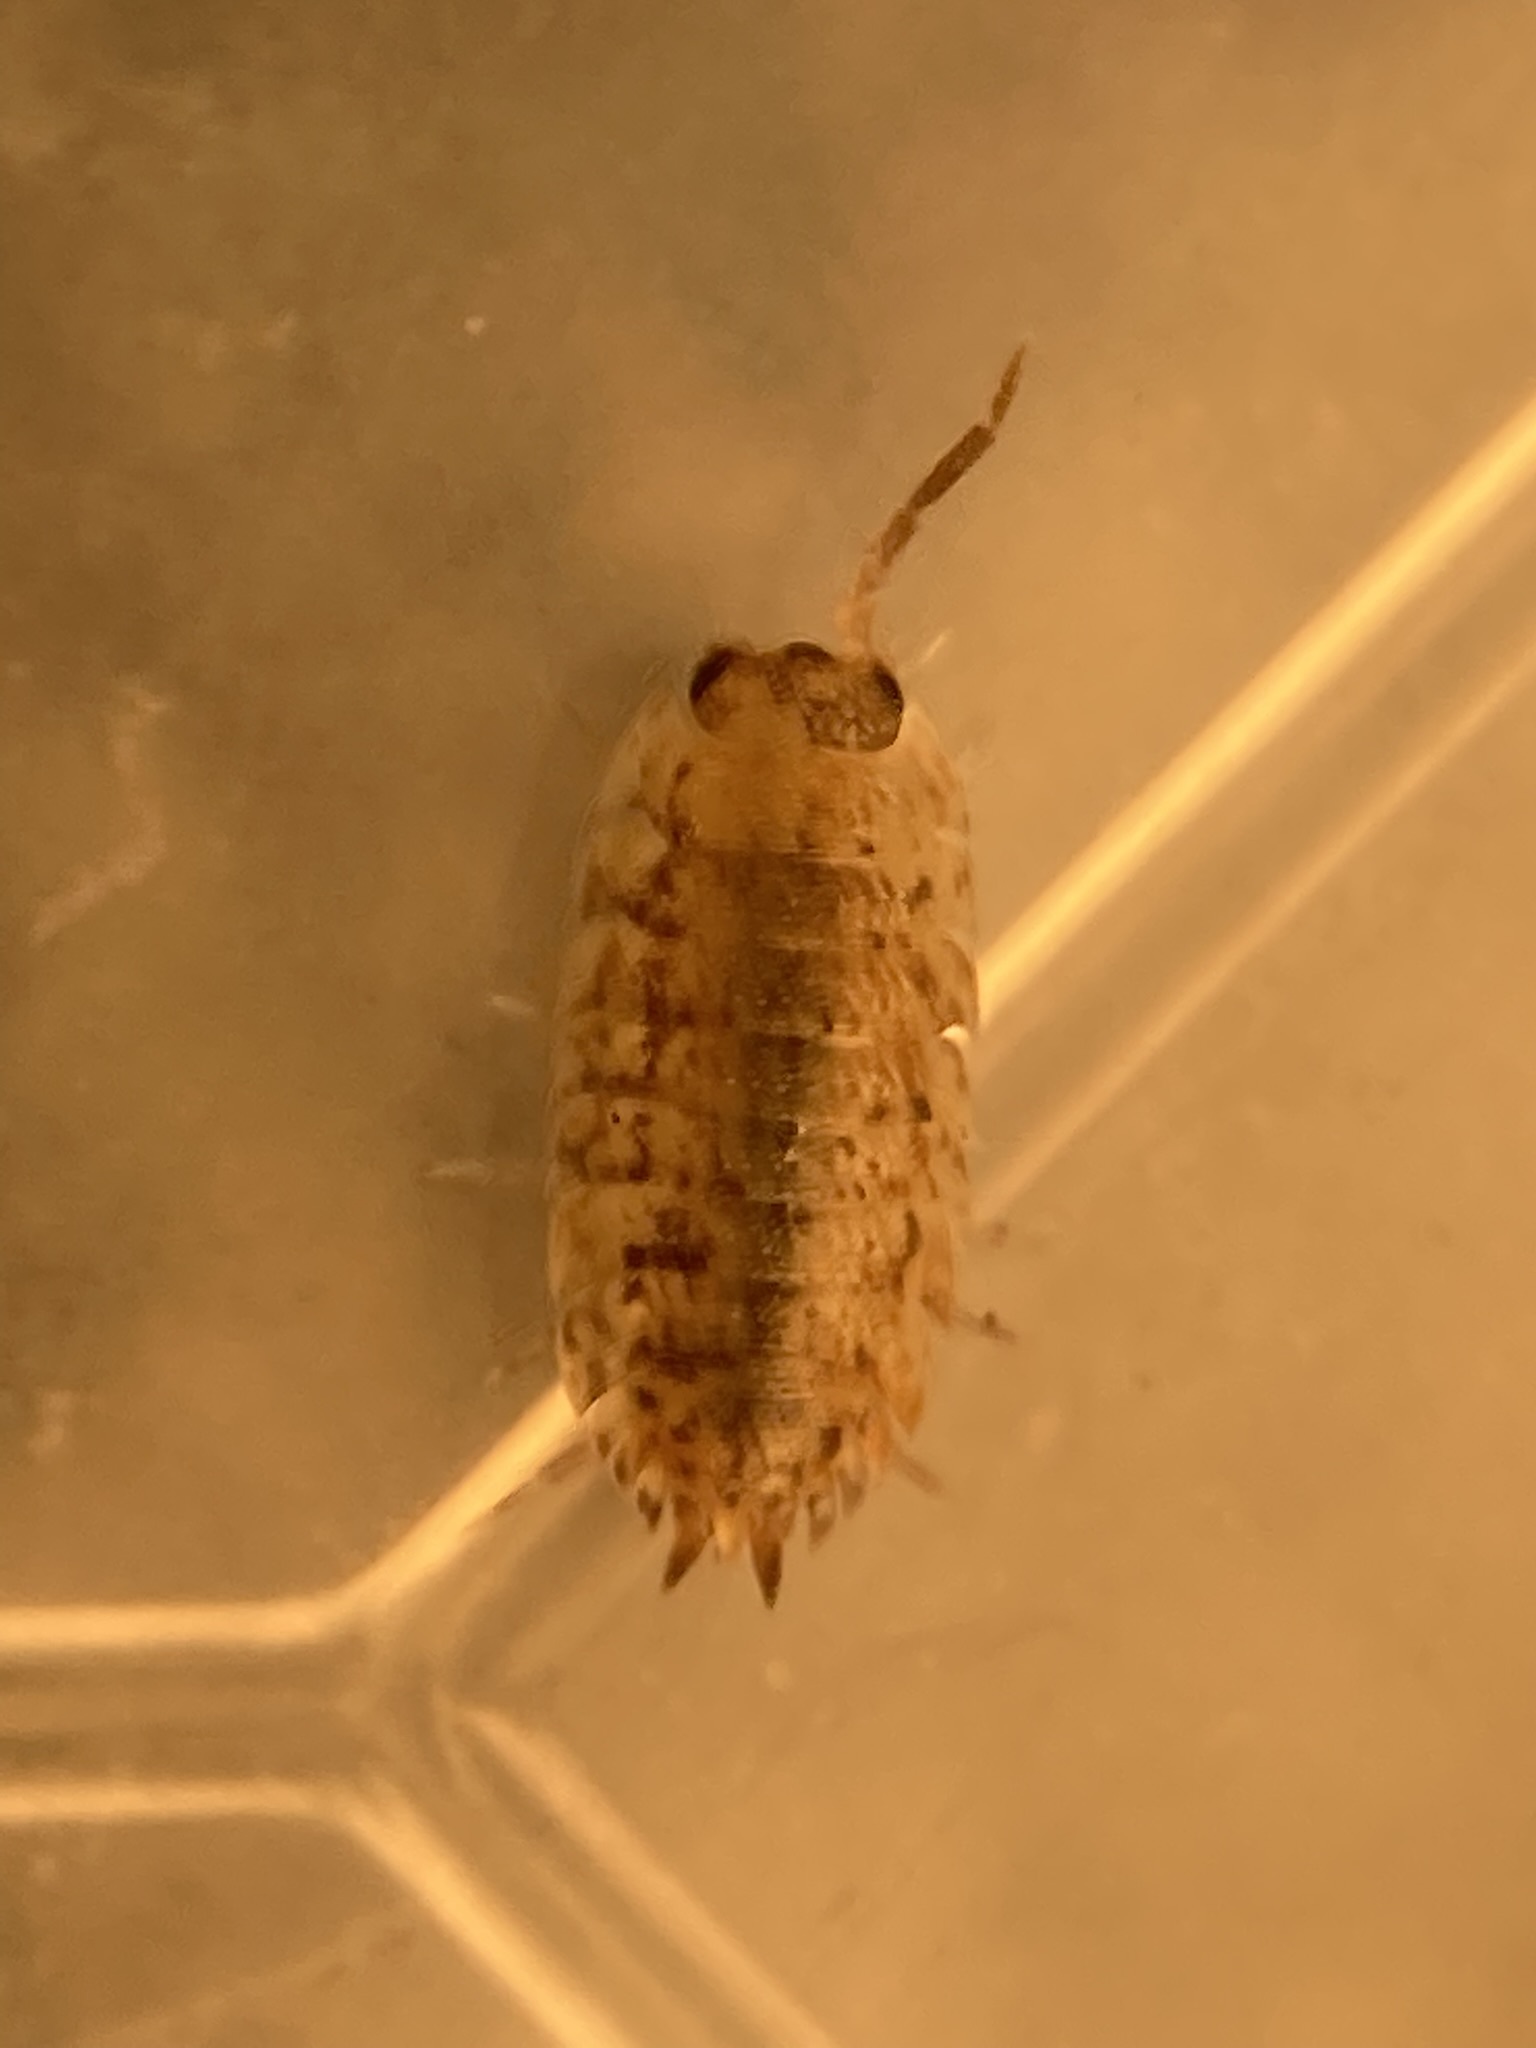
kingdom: Animalia
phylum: Arthropoda
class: Malacostraca
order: Isopoda
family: Porcellionidae
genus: Porcellio
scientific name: Porcellio scaber
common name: Common rough woodlouse
